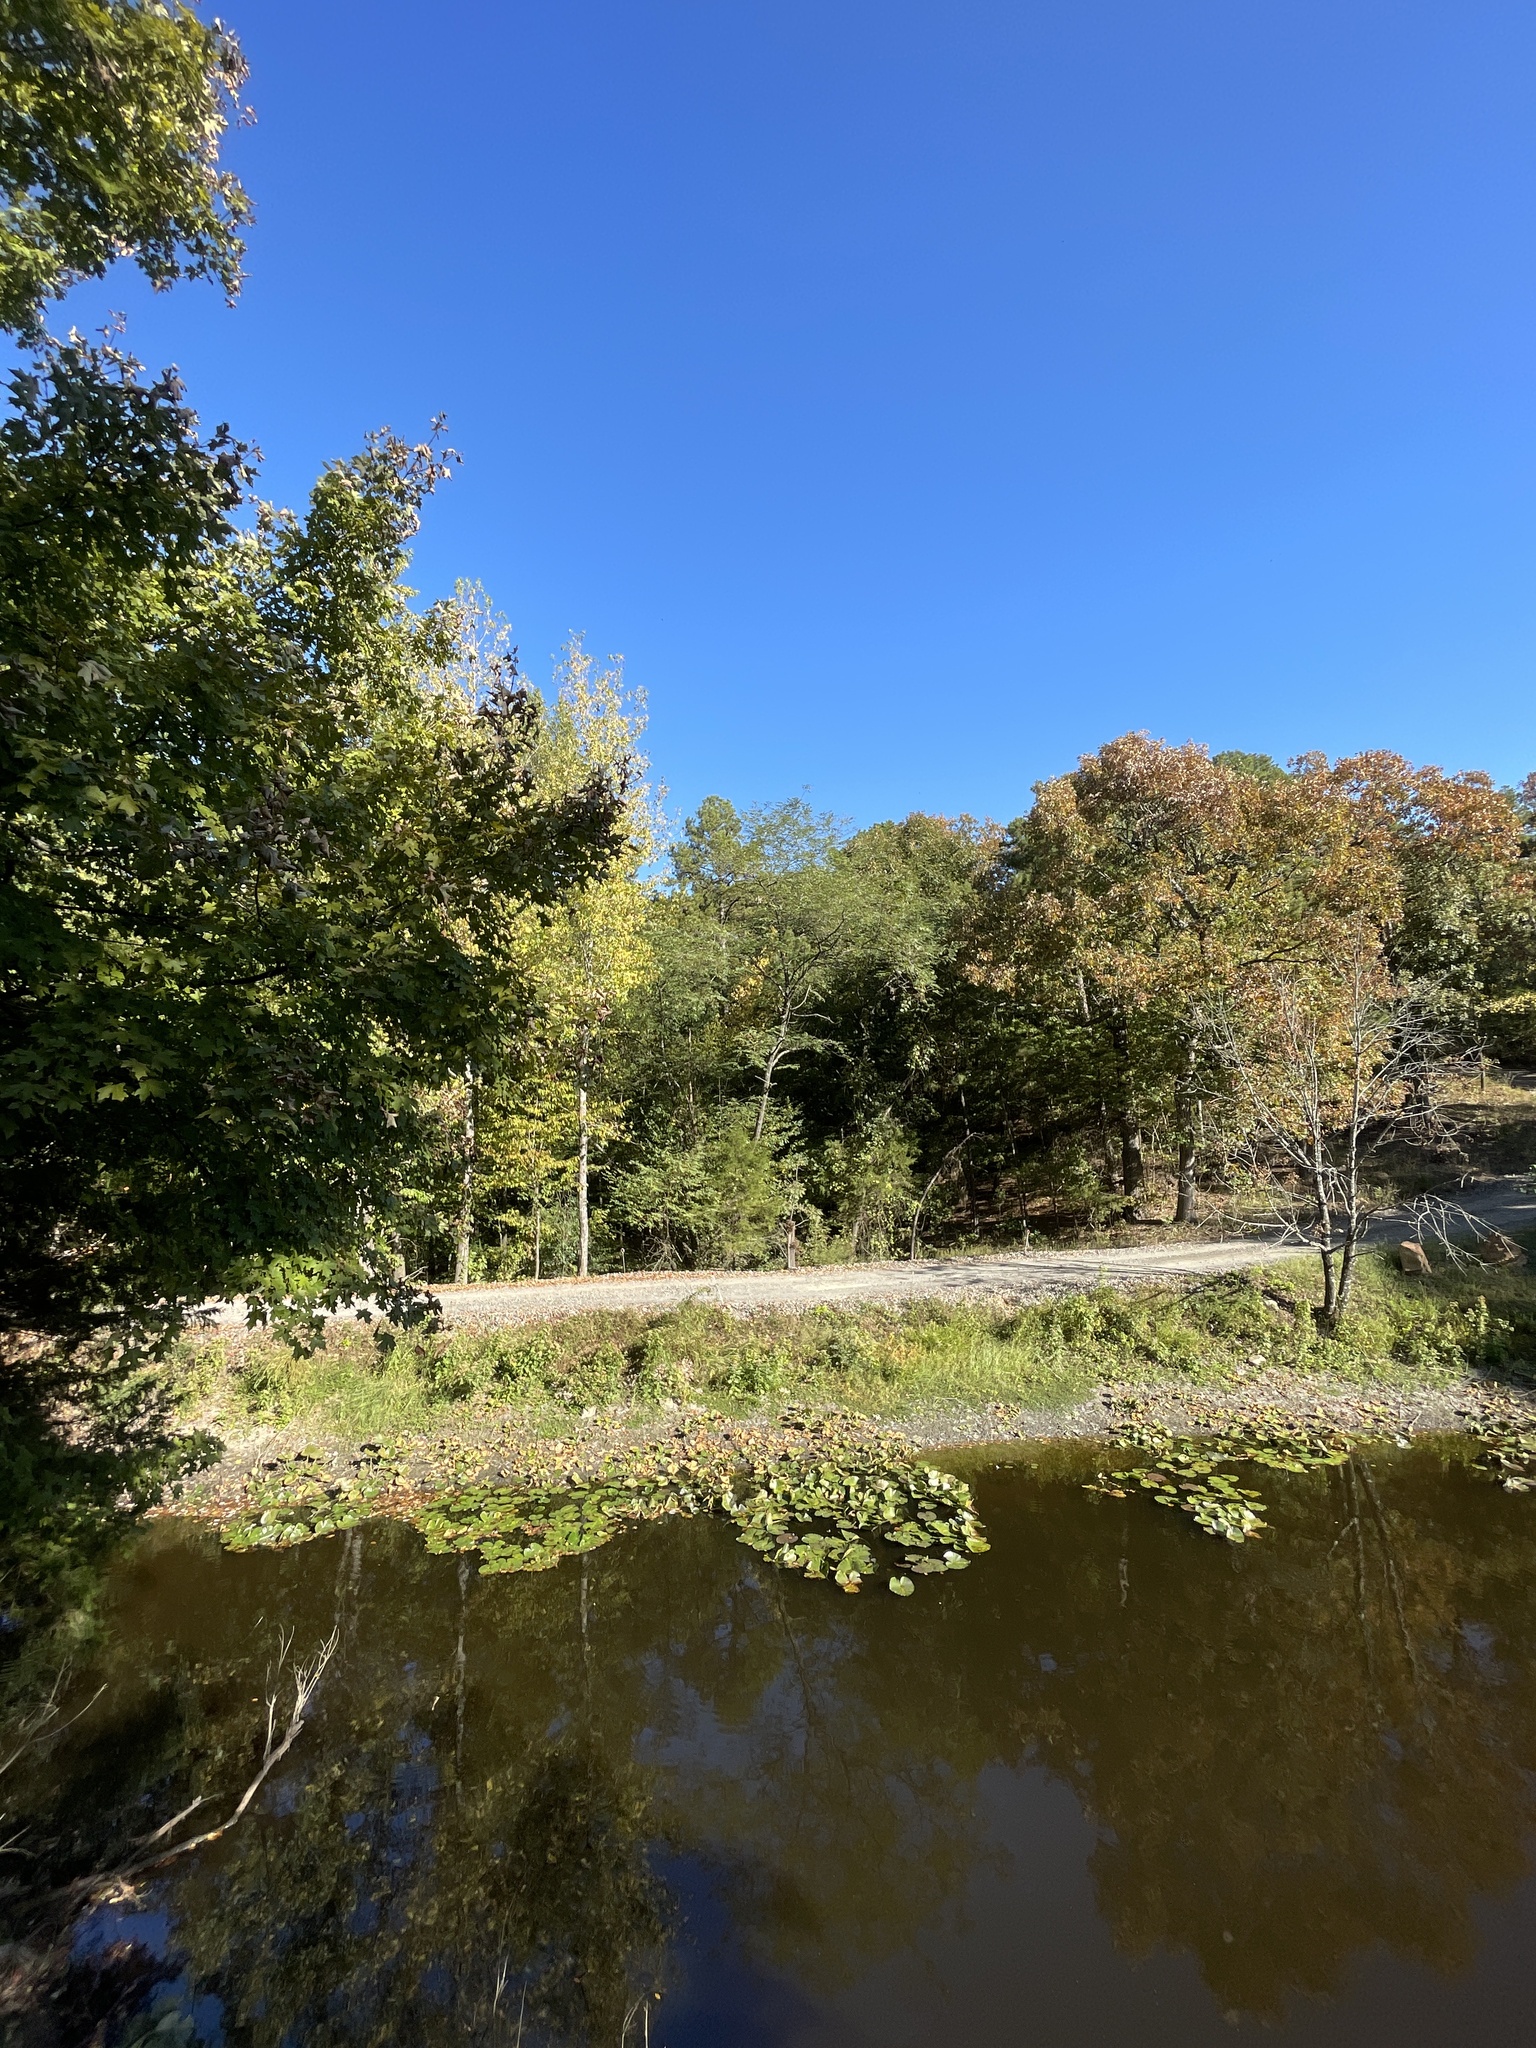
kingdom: Animalia
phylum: Chordata
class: Aves
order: Piciformes
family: Picidae
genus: Colaptes
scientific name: Colaptes auratus
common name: Northern flicker
